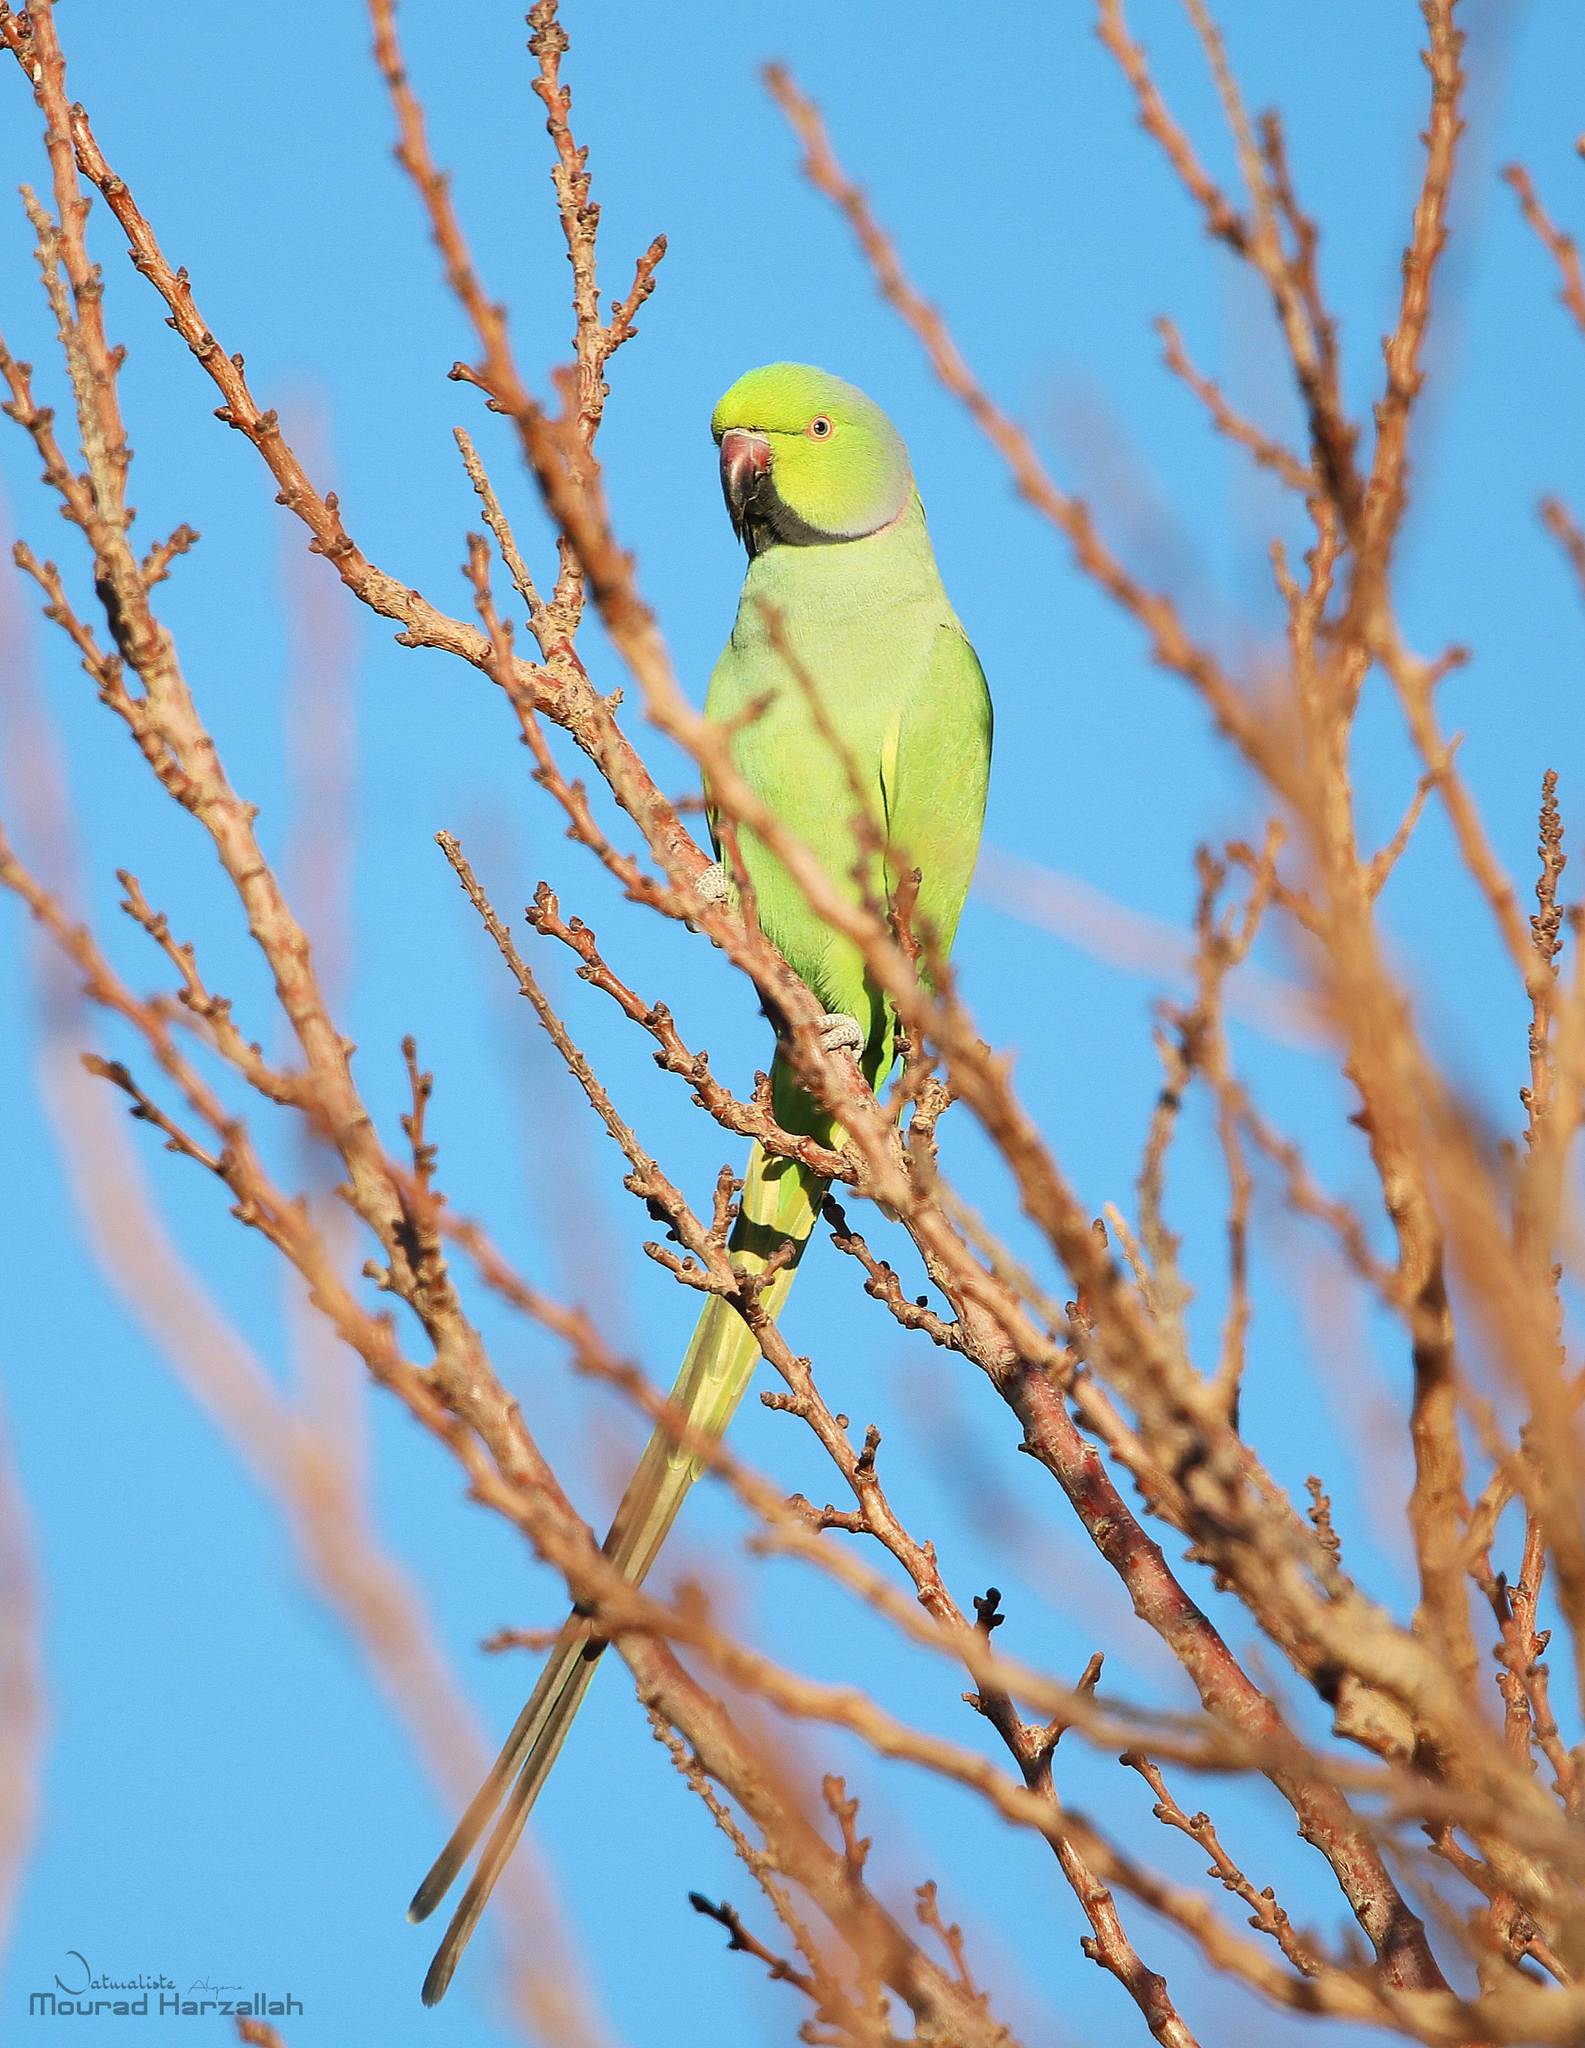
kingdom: Animalia
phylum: Chordata
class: Aves
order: Psittaciformes
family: Psittacidae
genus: Psittacula
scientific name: Psittacula krameri
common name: Rose-ringed parakeet
